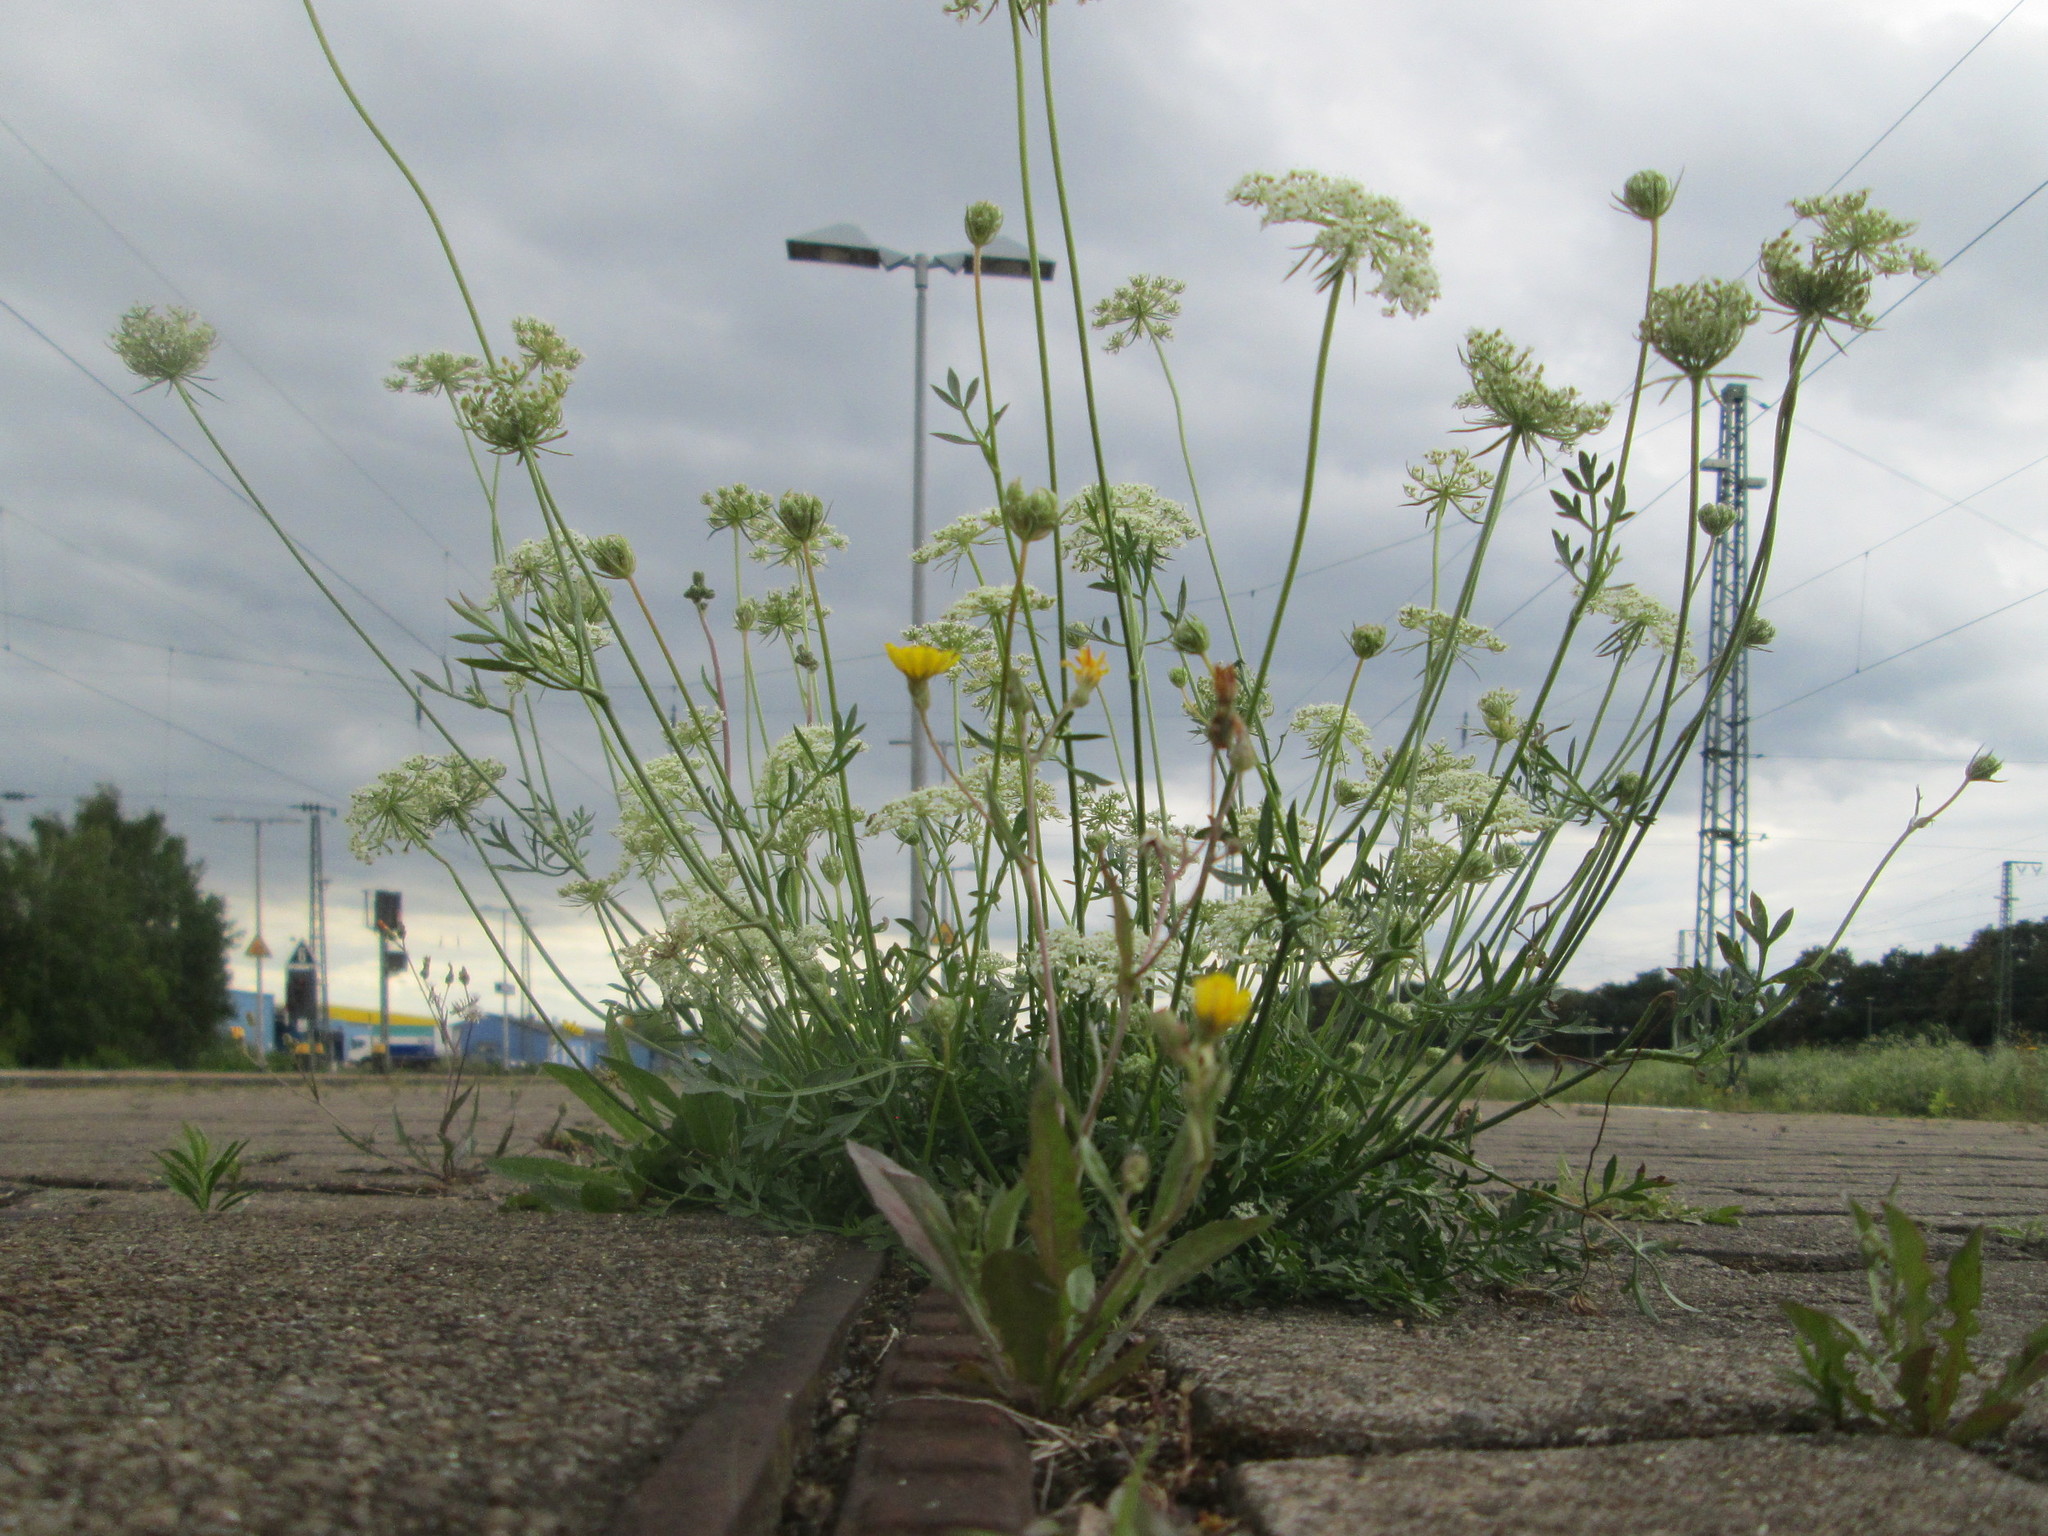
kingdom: Plantae
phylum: Tracheophyta
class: Magnoliopsida
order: Apiales
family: Apiaceae
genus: Daucus
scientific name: Daucus carota
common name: Wild carrot
